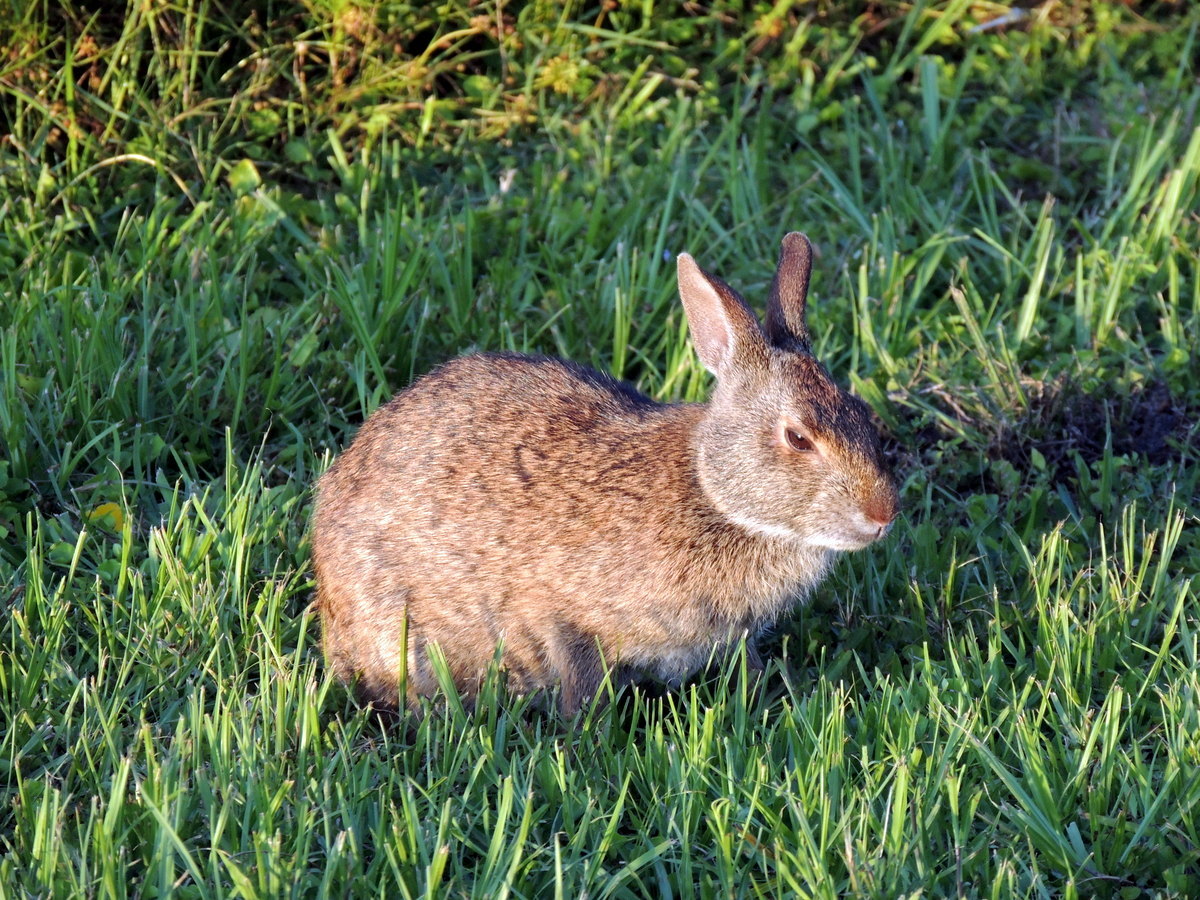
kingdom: Animalia
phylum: Chordata
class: Mammalia
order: Lagomorpha
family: Leporidae
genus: Sylvilagus
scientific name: Sylvilagus palustris
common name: Marsh rabbit
